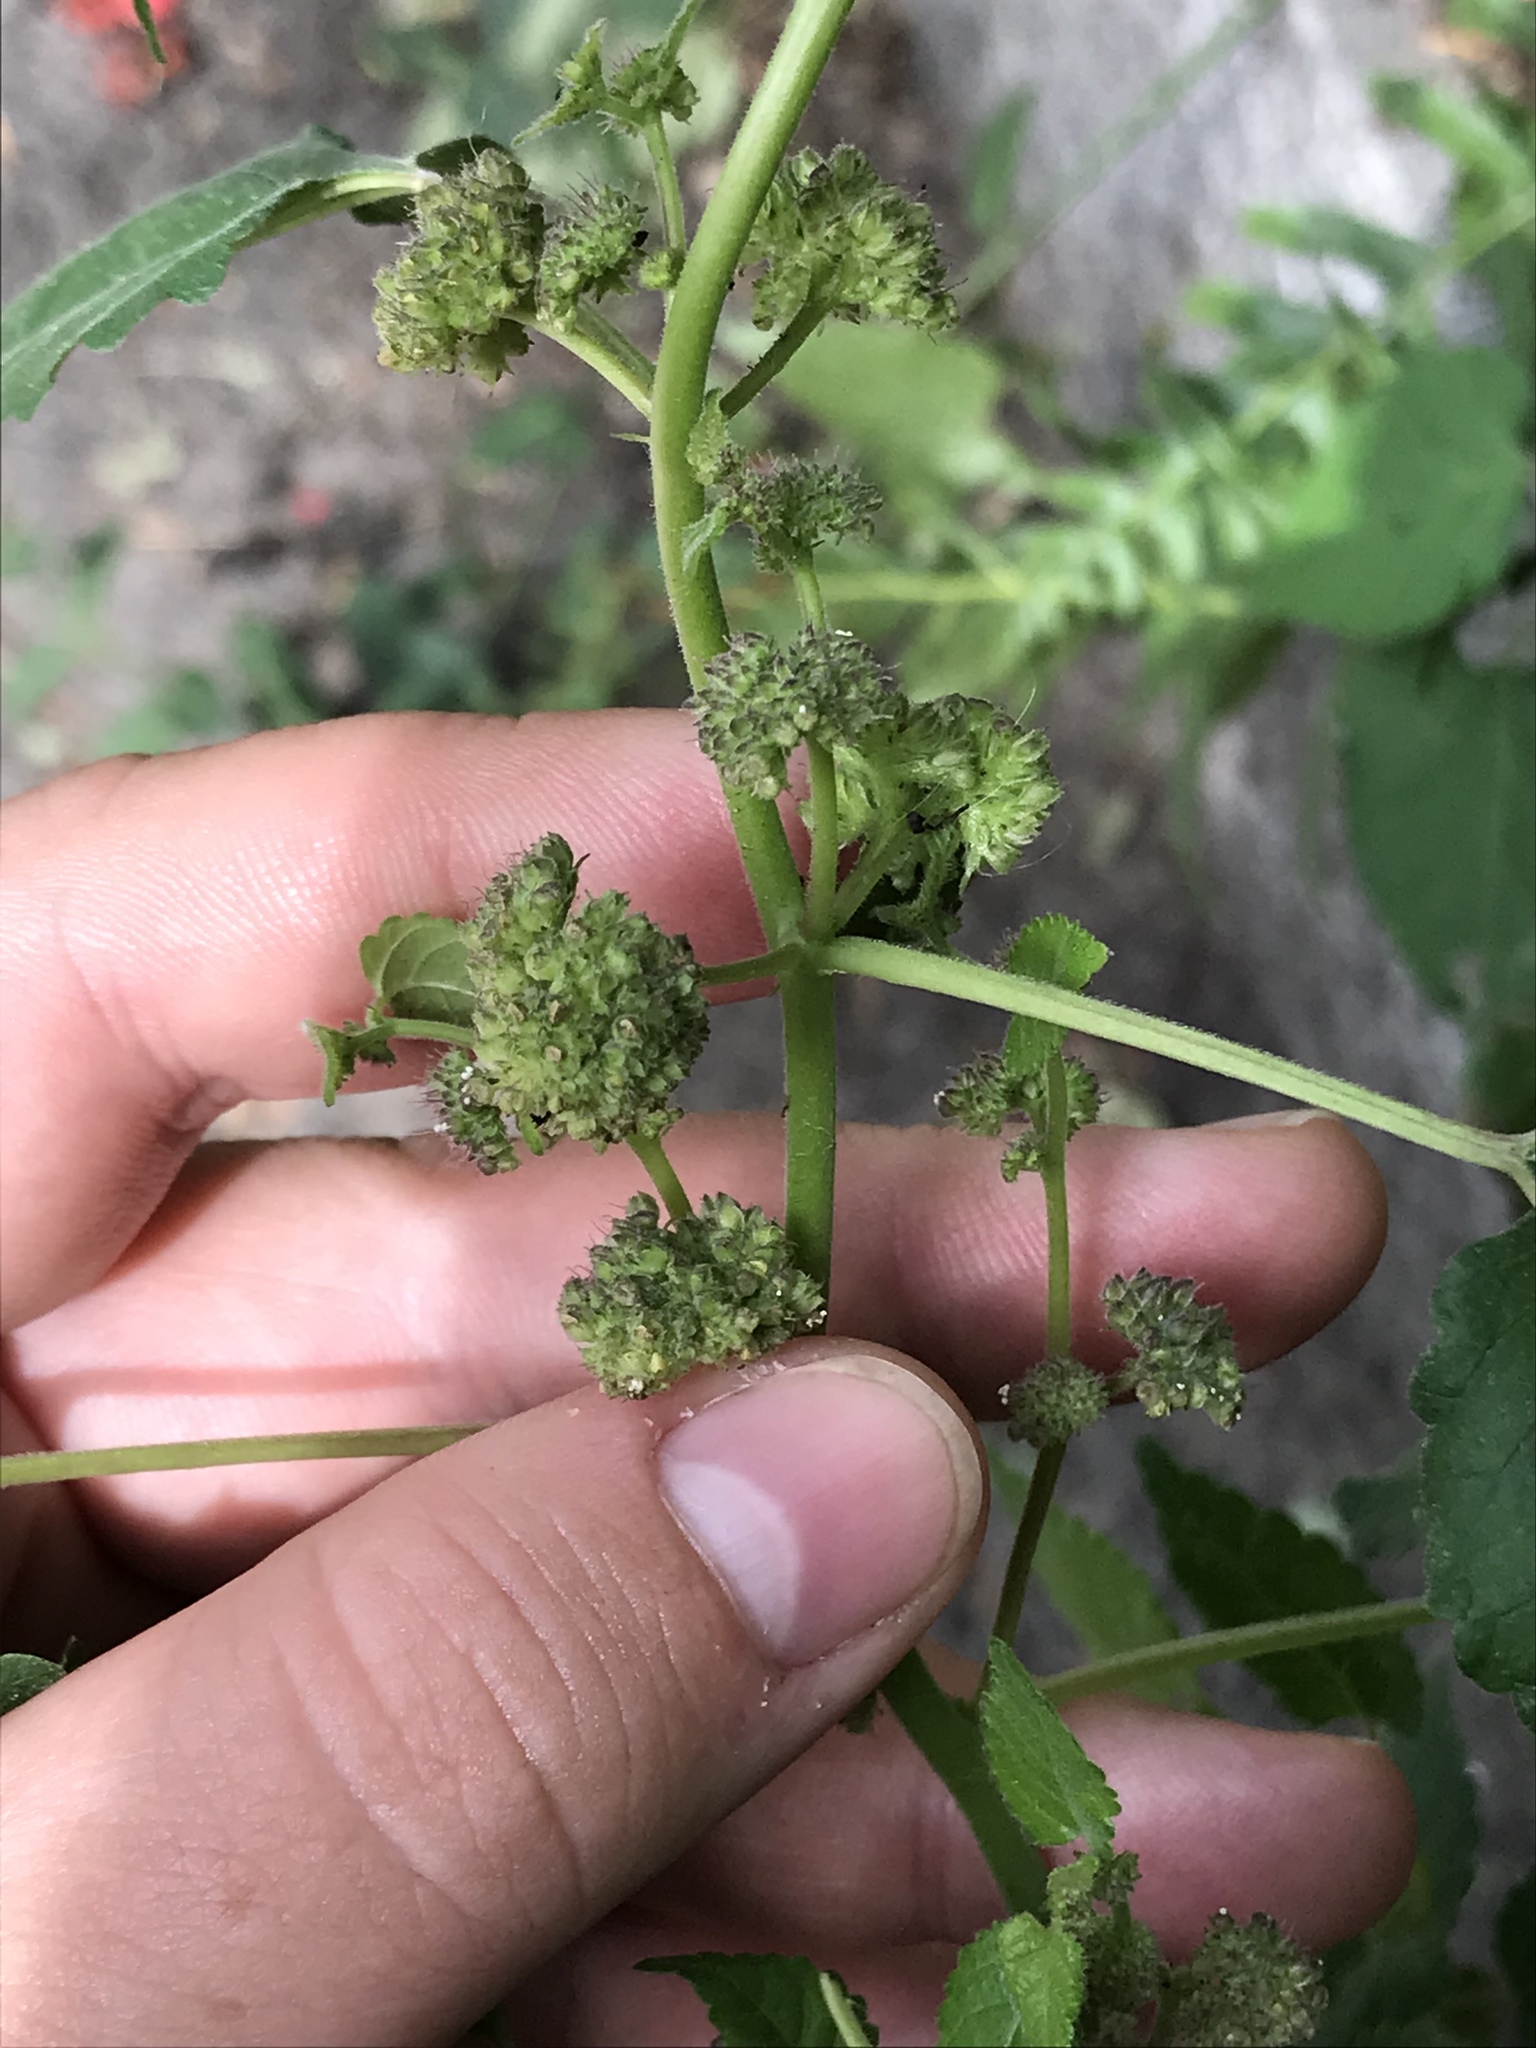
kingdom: Plantae
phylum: Tracheophyta
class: Magnoliopsida
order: Rosales
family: Moraceae
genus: Fatoua
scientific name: Fatoua villosa
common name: Hairy crabweed
